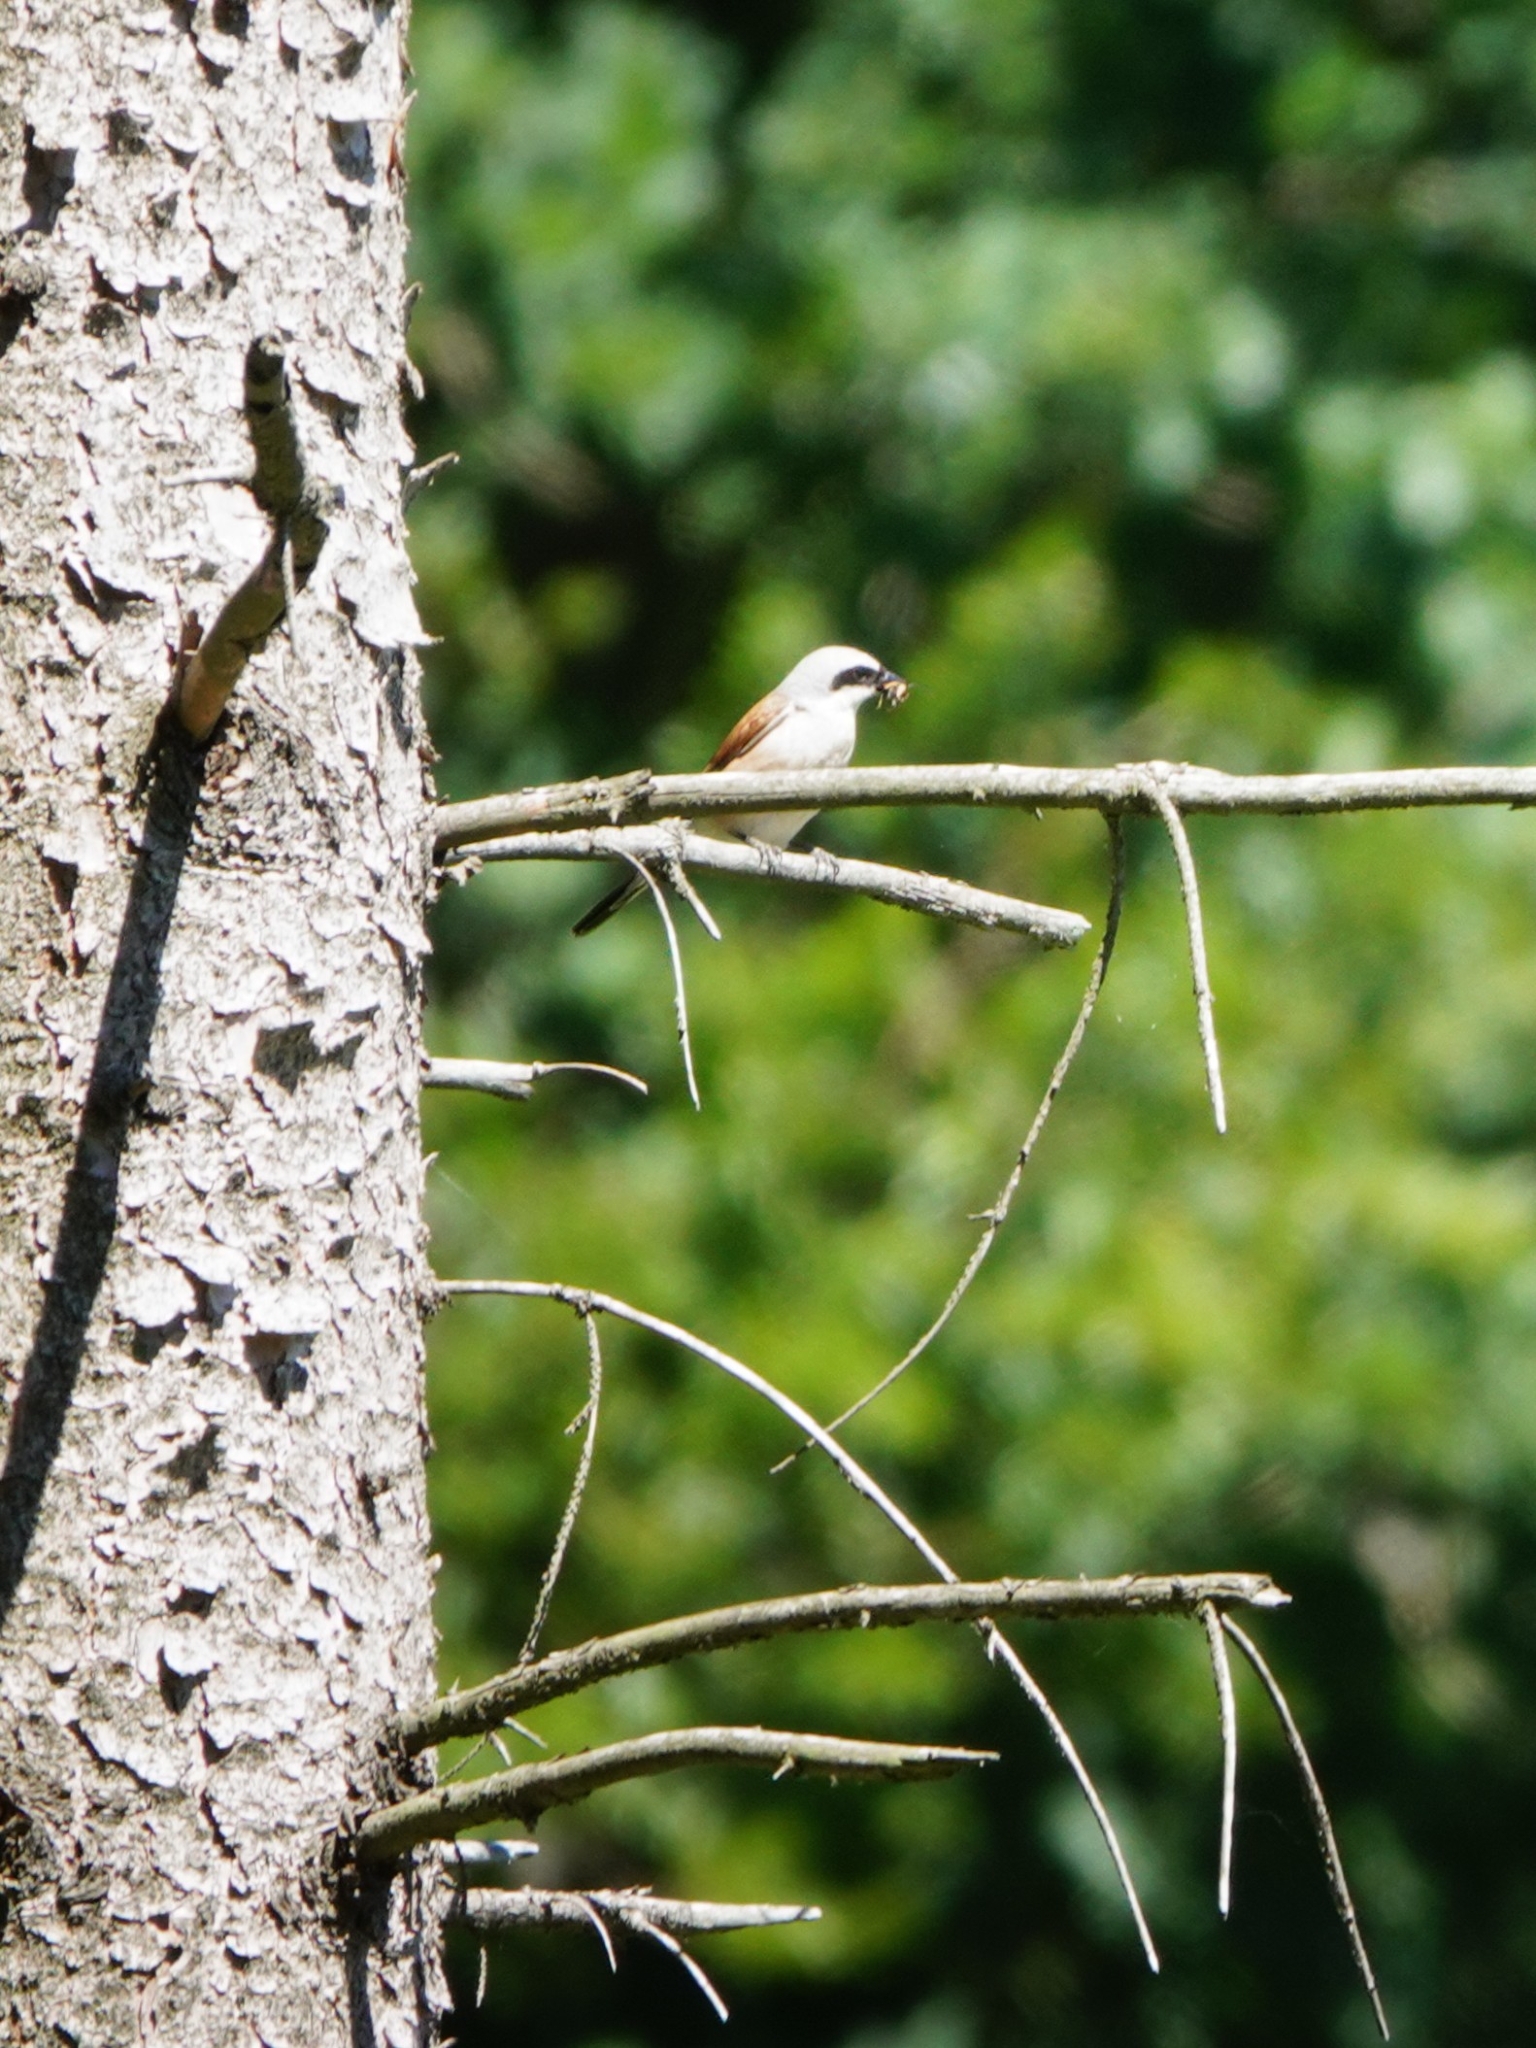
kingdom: Animalia
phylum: Chordata
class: Aves
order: Passeriformes
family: Laniidae
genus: Lanius
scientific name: Lanius collurio
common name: Red-backed shrike
